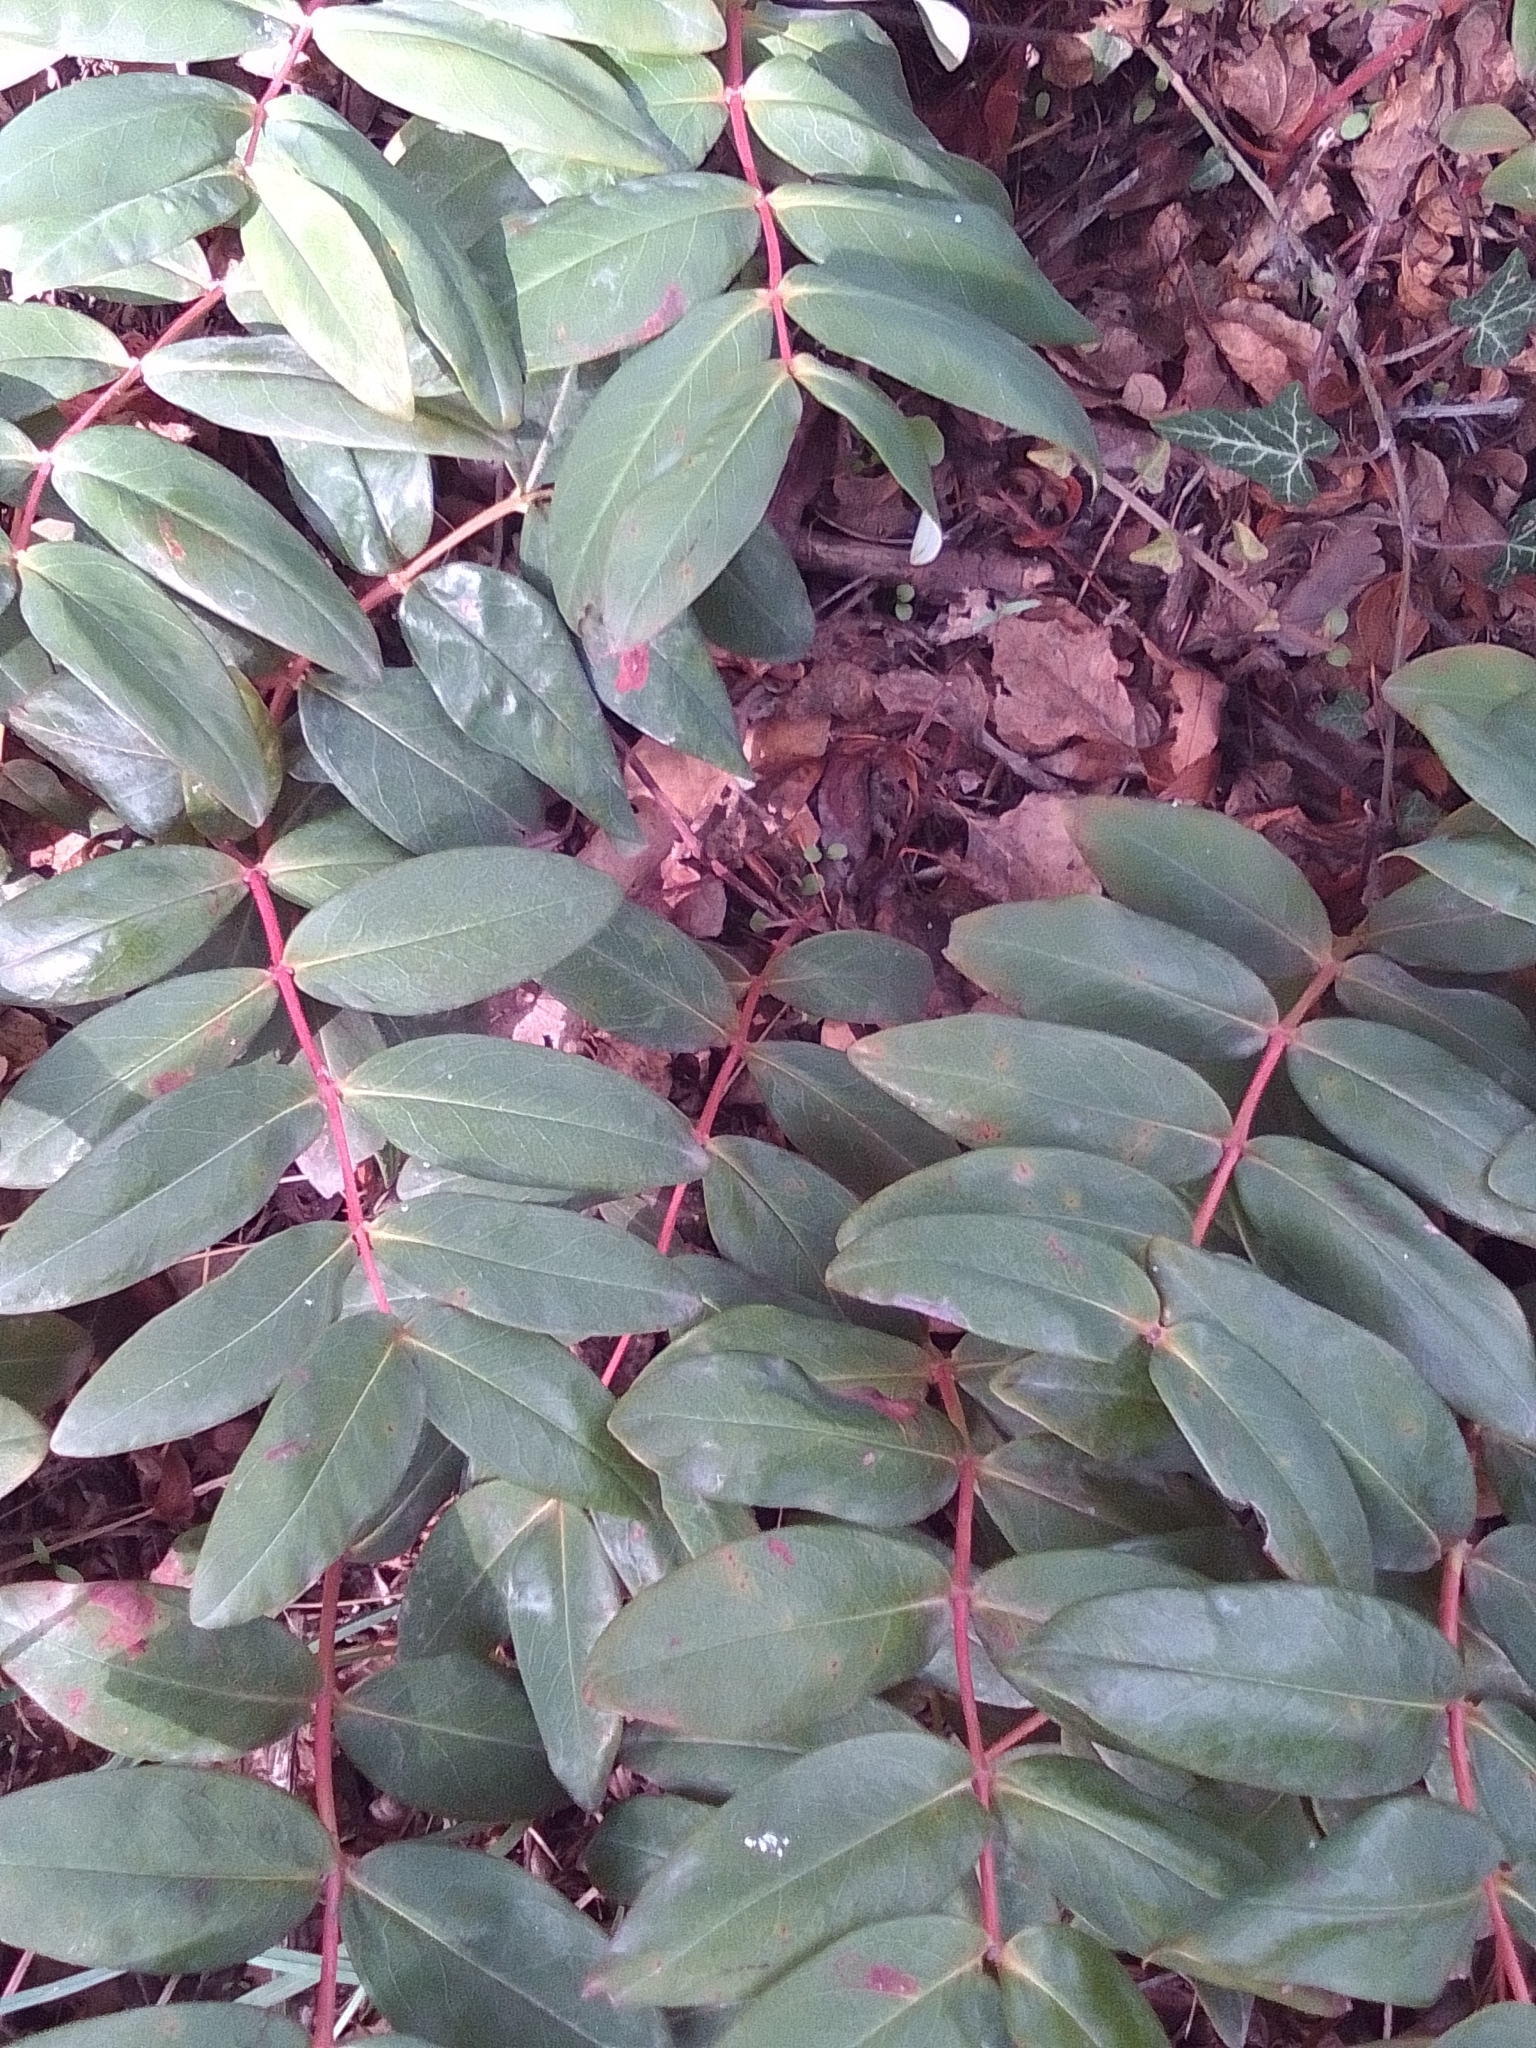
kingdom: Plantae
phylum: Tracheophyta
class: Magnoliopsida
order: Malpighiales
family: Hypericaceae
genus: Hypericum
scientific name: Hypericum calycinum
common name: Rose-of-sharon
